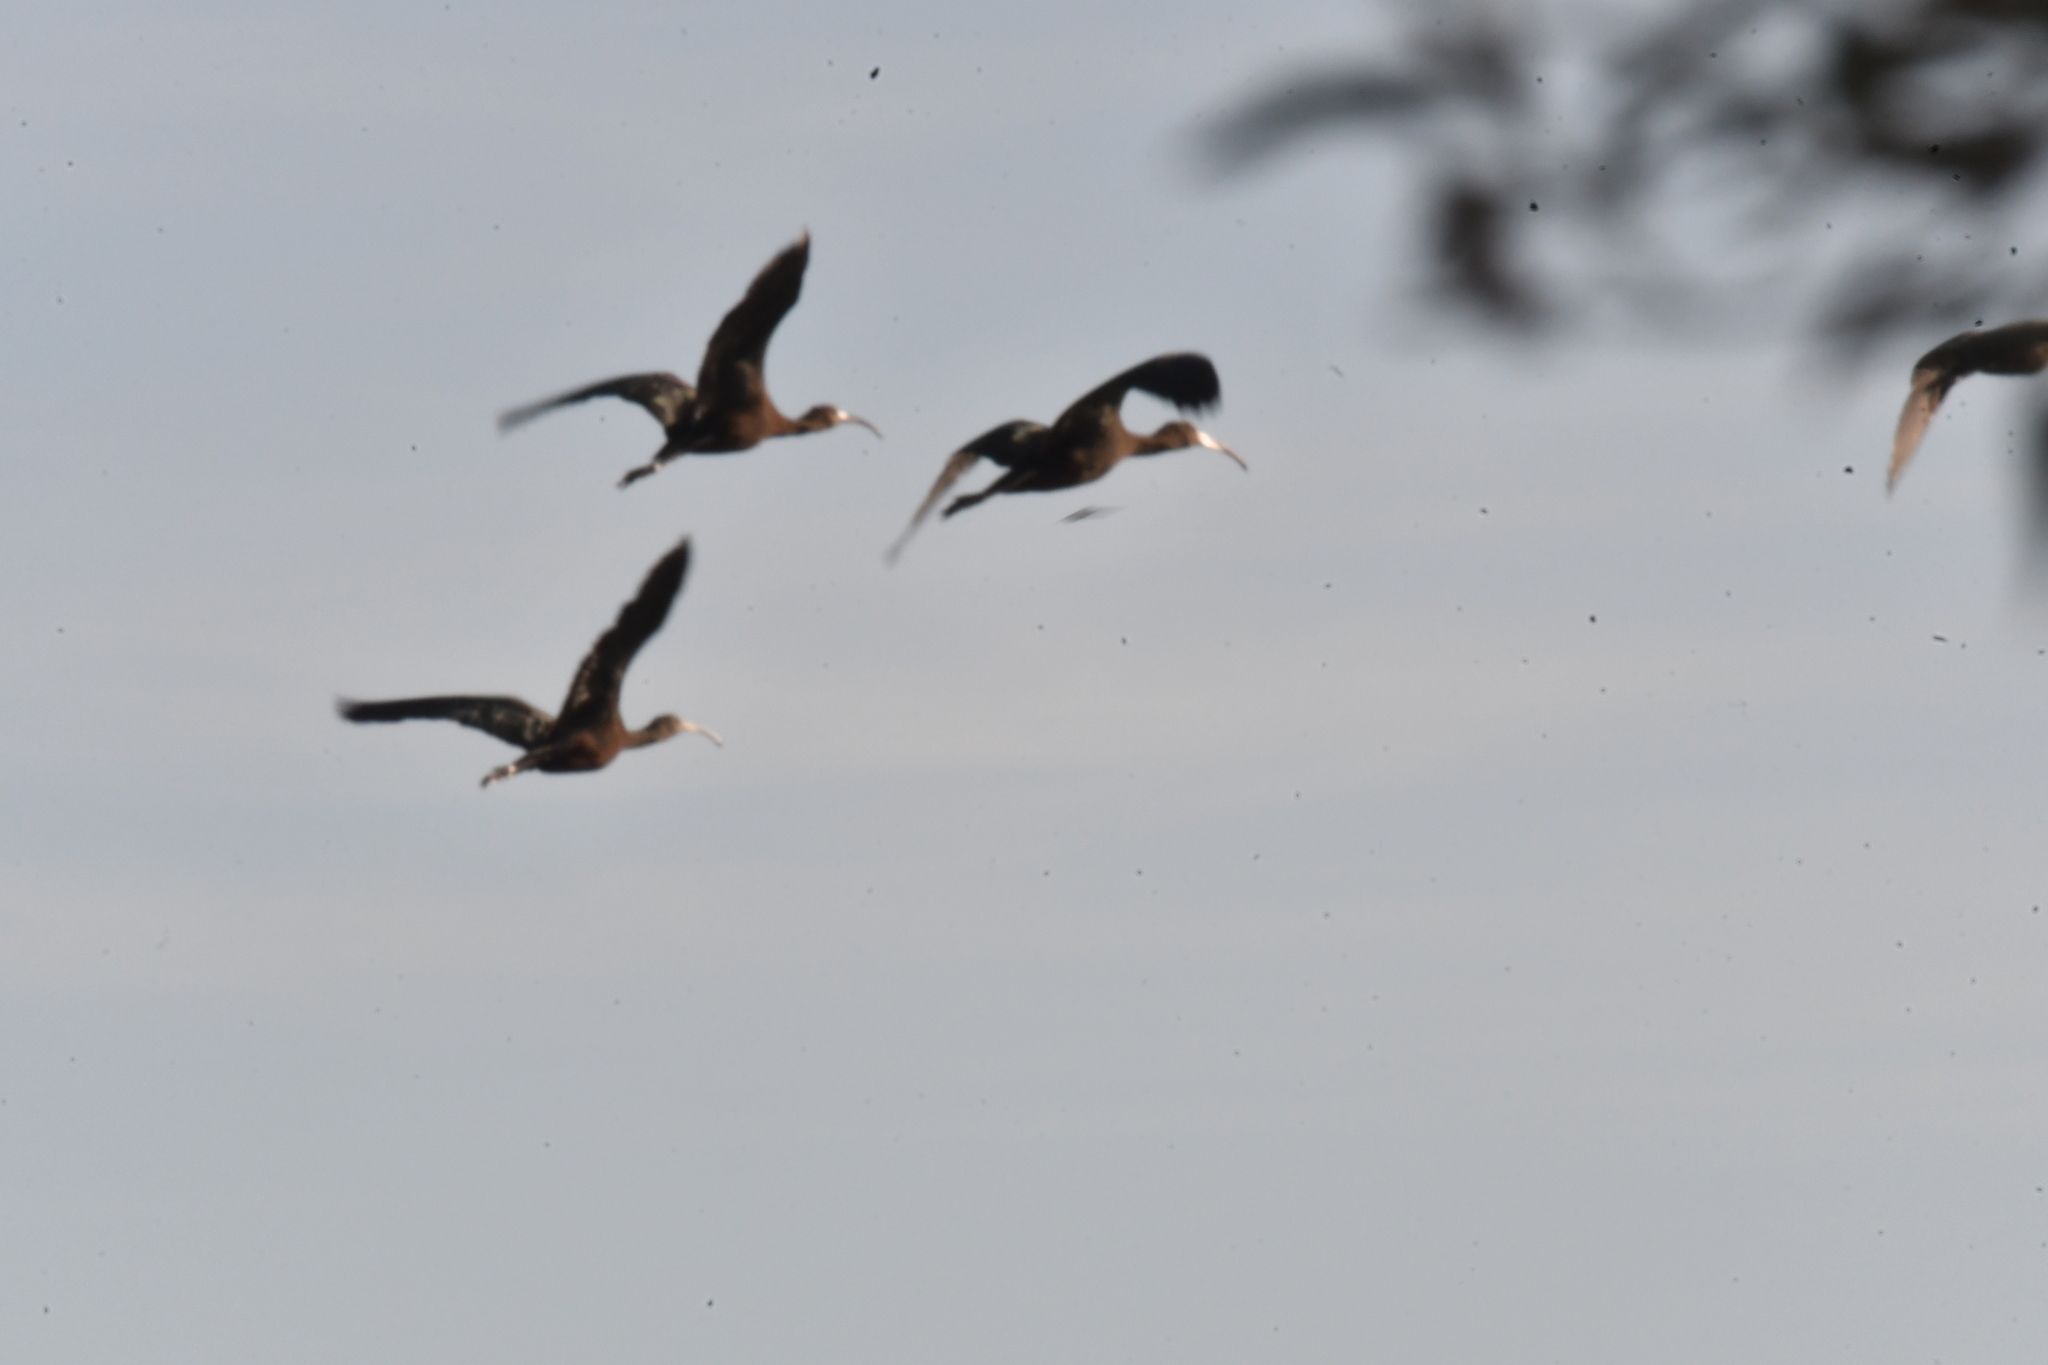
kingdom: Animalia
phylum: Chordata
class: Aves
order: Pelecaniformes
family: Threskiornithidae
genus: Plegadis
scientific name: Plegadis falcinellus
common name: Glossy ibis
